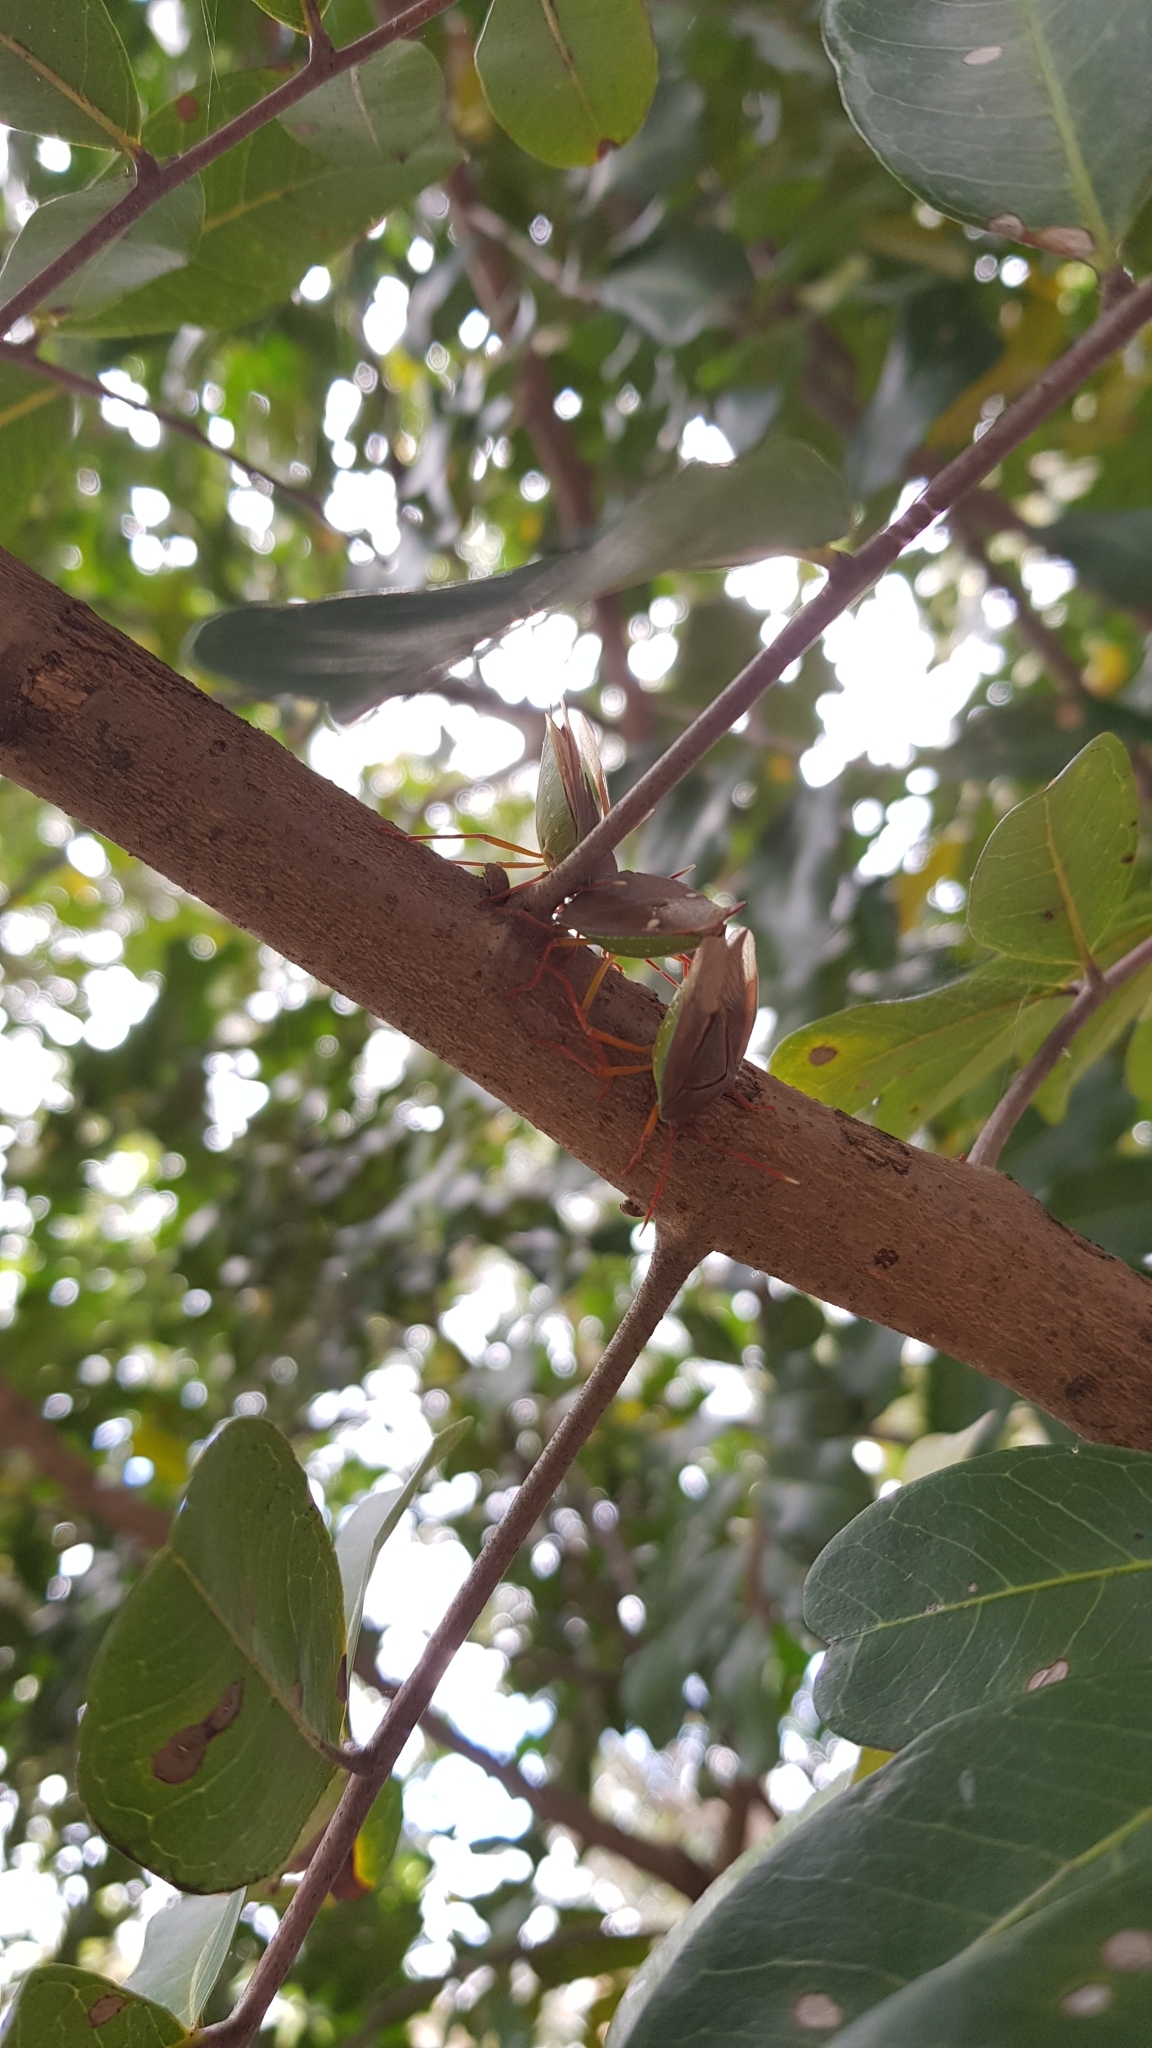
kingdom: Animalia
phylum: Arthropoda
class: Insecta
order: Hemiptera
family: Tessaratomidae
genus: Lyramorpha
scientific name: Lyramorpha rosea
